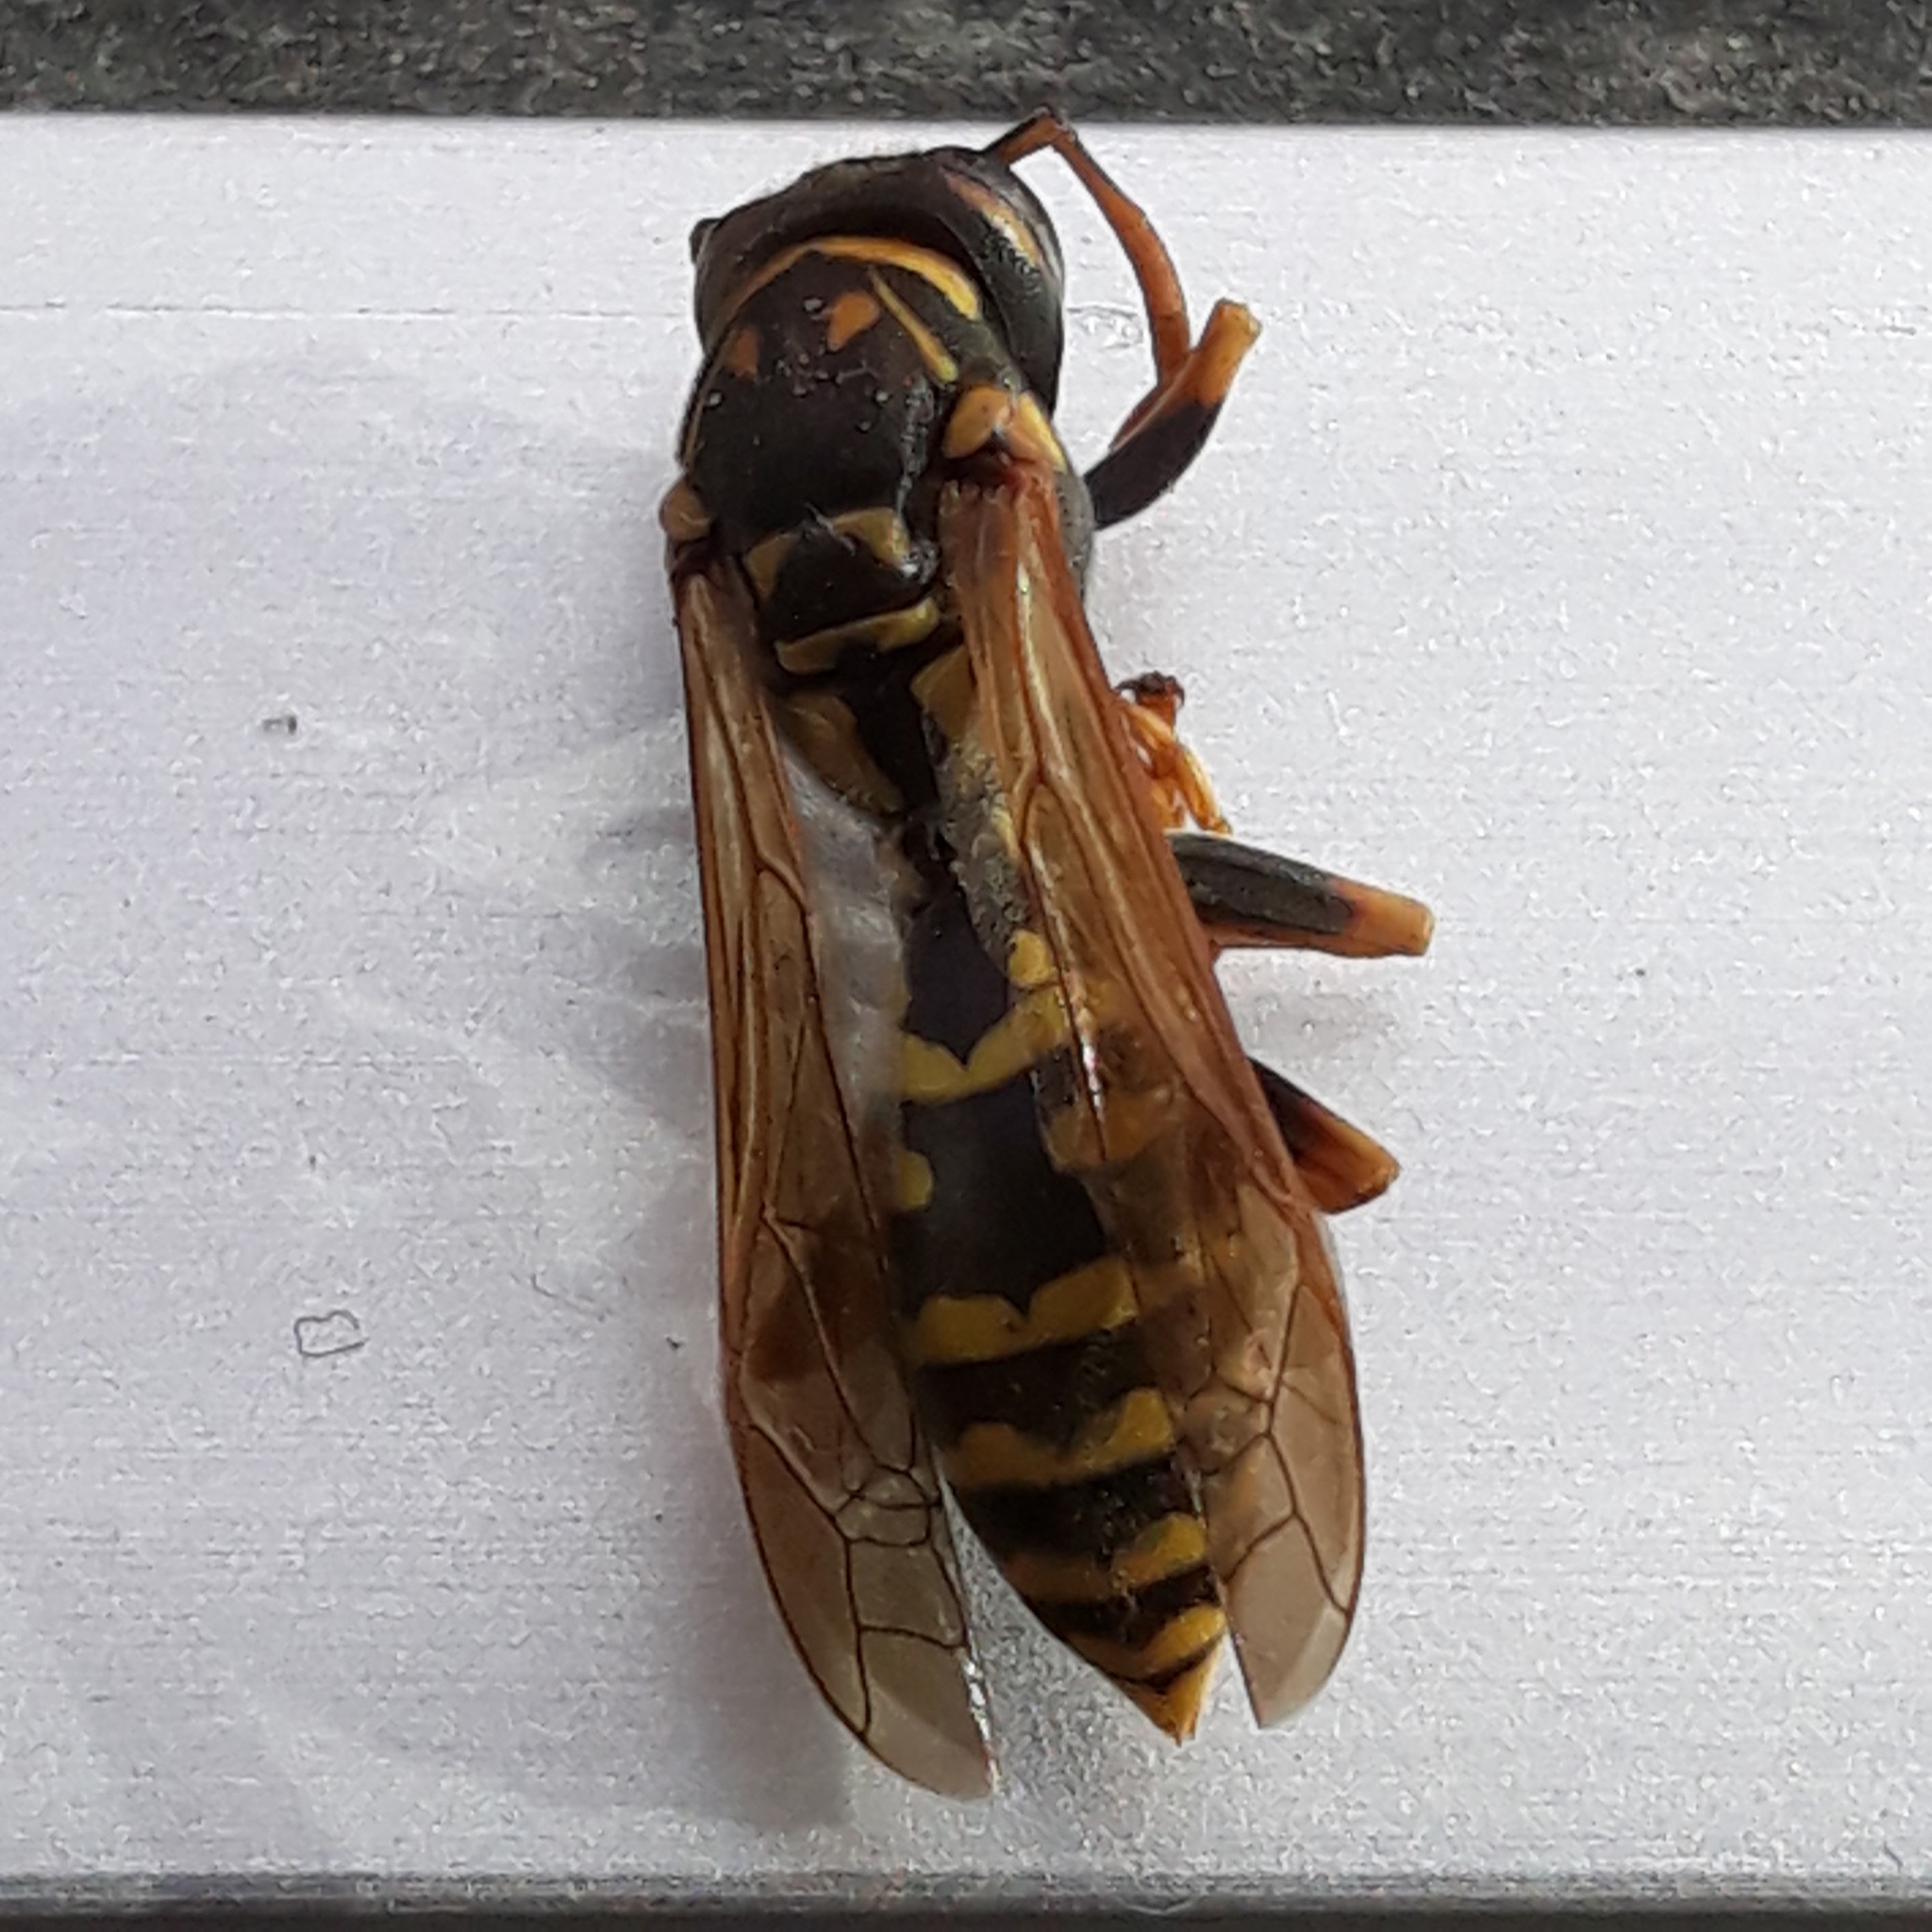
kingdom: Animalia
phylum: Arthropoda
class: Insecta
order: Hymenoptera
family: Eumenidae
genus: Polistes
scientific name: Polistes dominula
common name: Paper wasp
